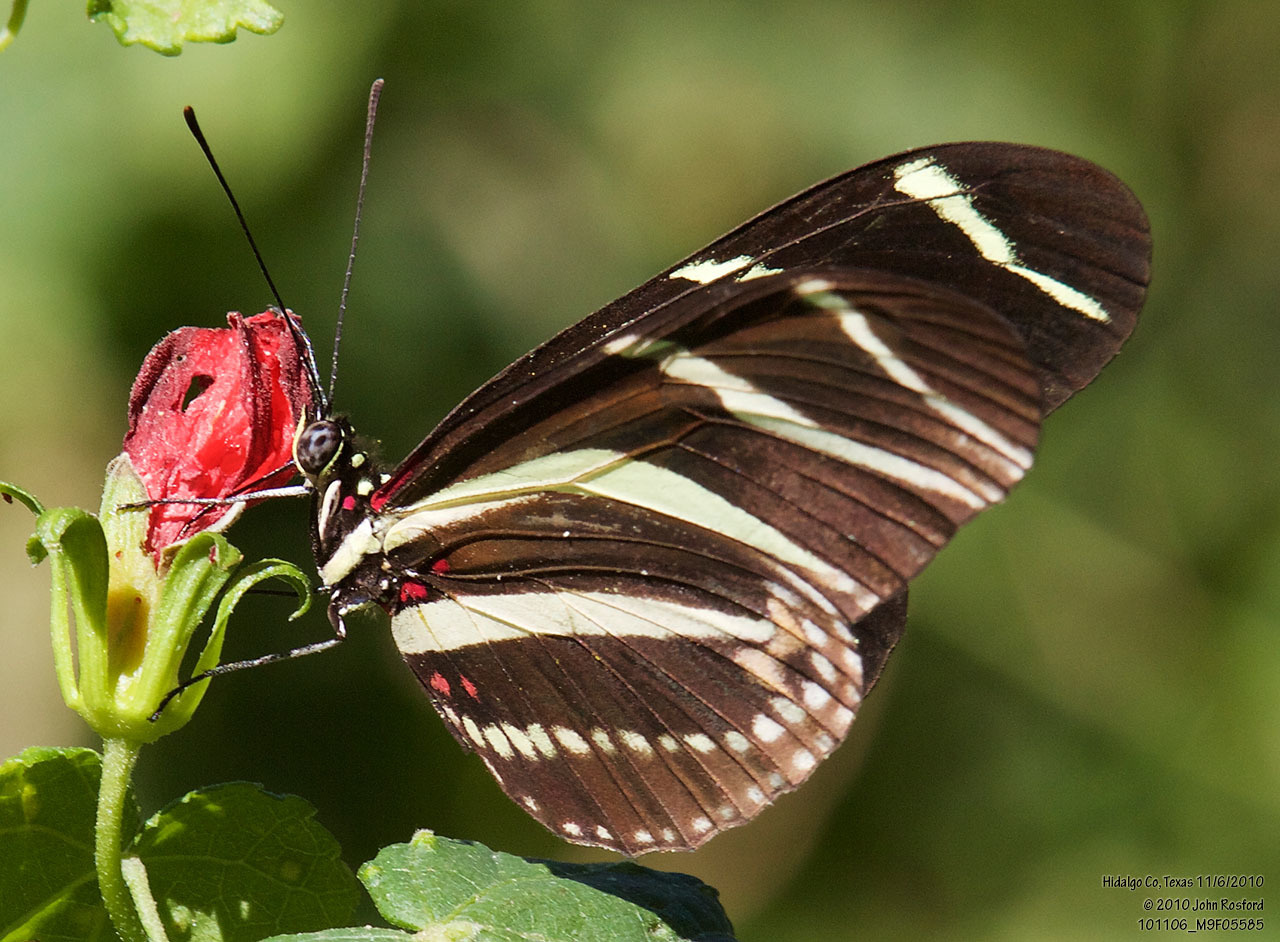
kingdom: Animalia
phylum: Arthropoda
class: Insecta
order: Lepidoptera
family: Nymphalidae
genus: Heliconius
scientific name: Heliconius charithonia
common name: Zebra long wing
